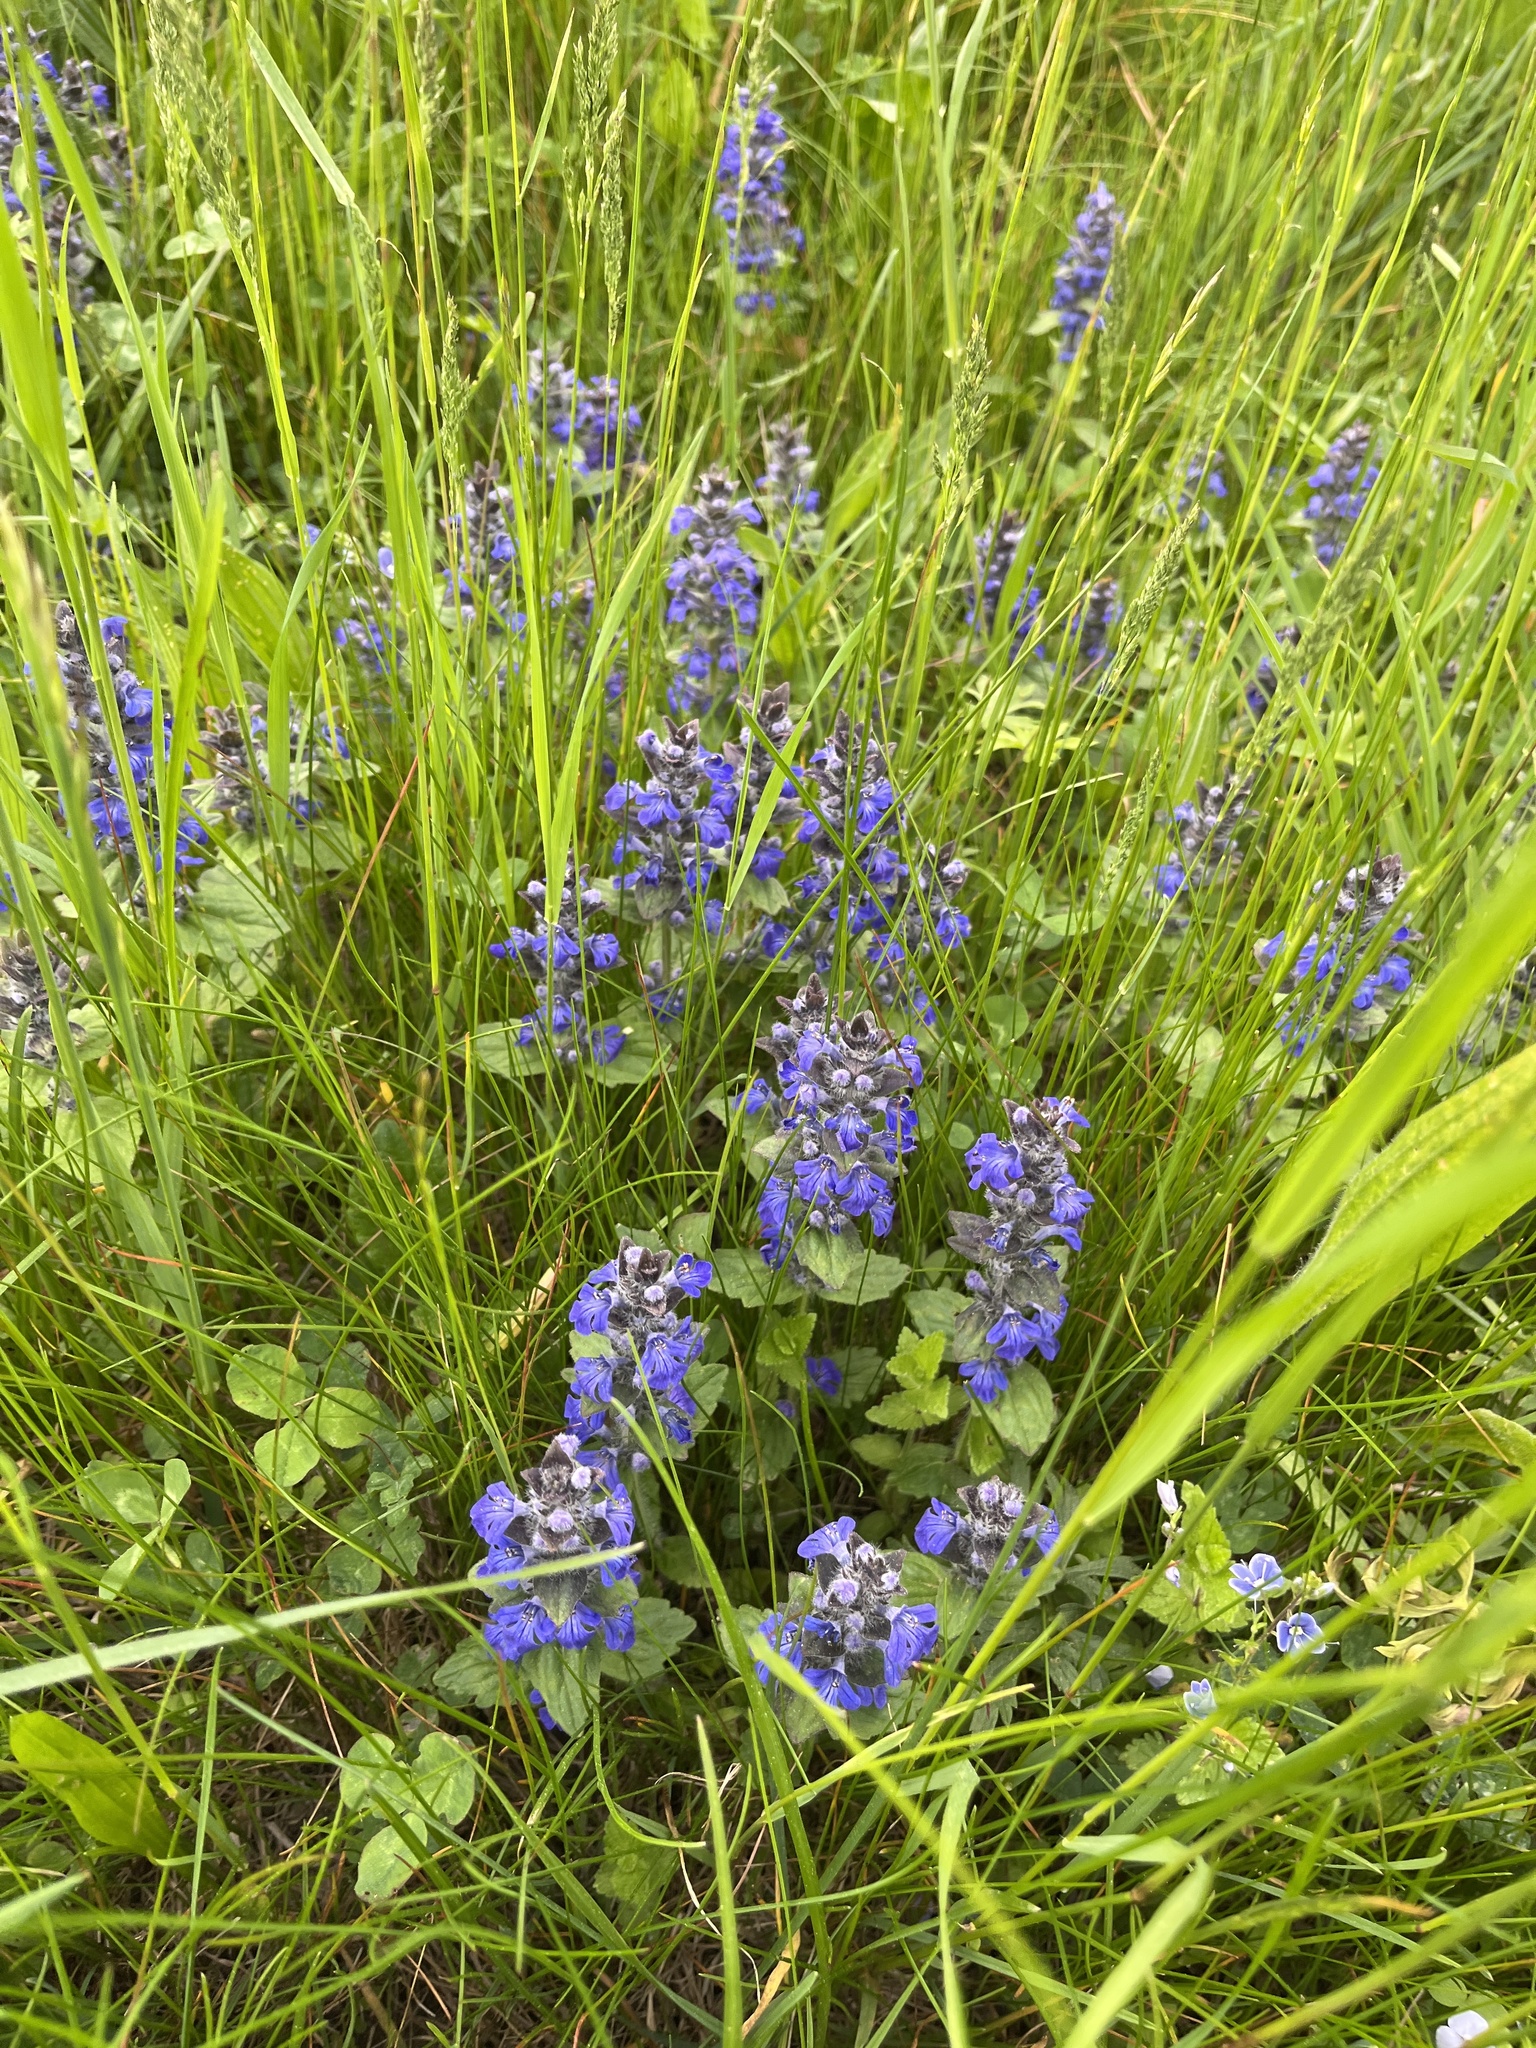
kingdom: Plantae
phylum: Tracheophyta
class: Magnoliopsida
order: Lamiales
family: Lamiaceae
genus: Ajuga
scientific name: Ajuga reptans
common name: Bugle
